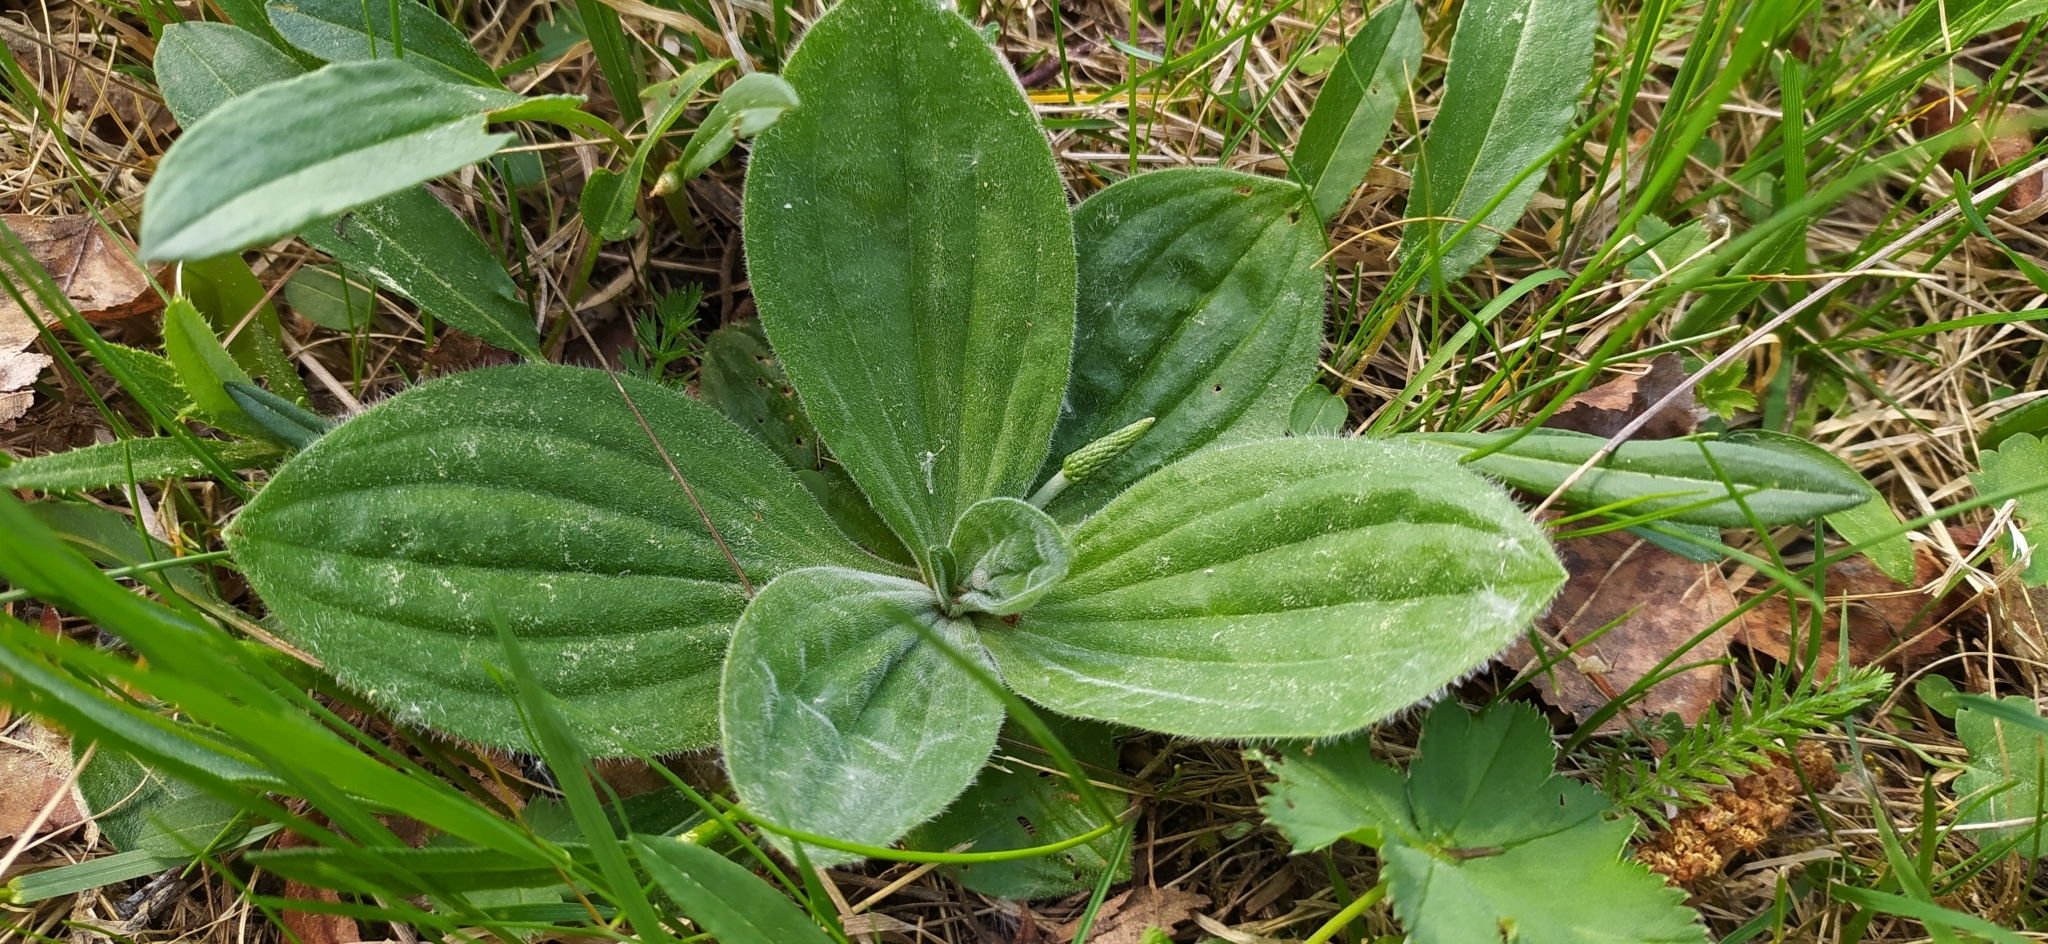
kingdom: Plantae
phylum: Tracheophyta
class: Magnoliopsida
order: Lamiales
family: Plantaginaceae
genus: Plantago
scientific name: Plantago media
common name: Hoary plantain
